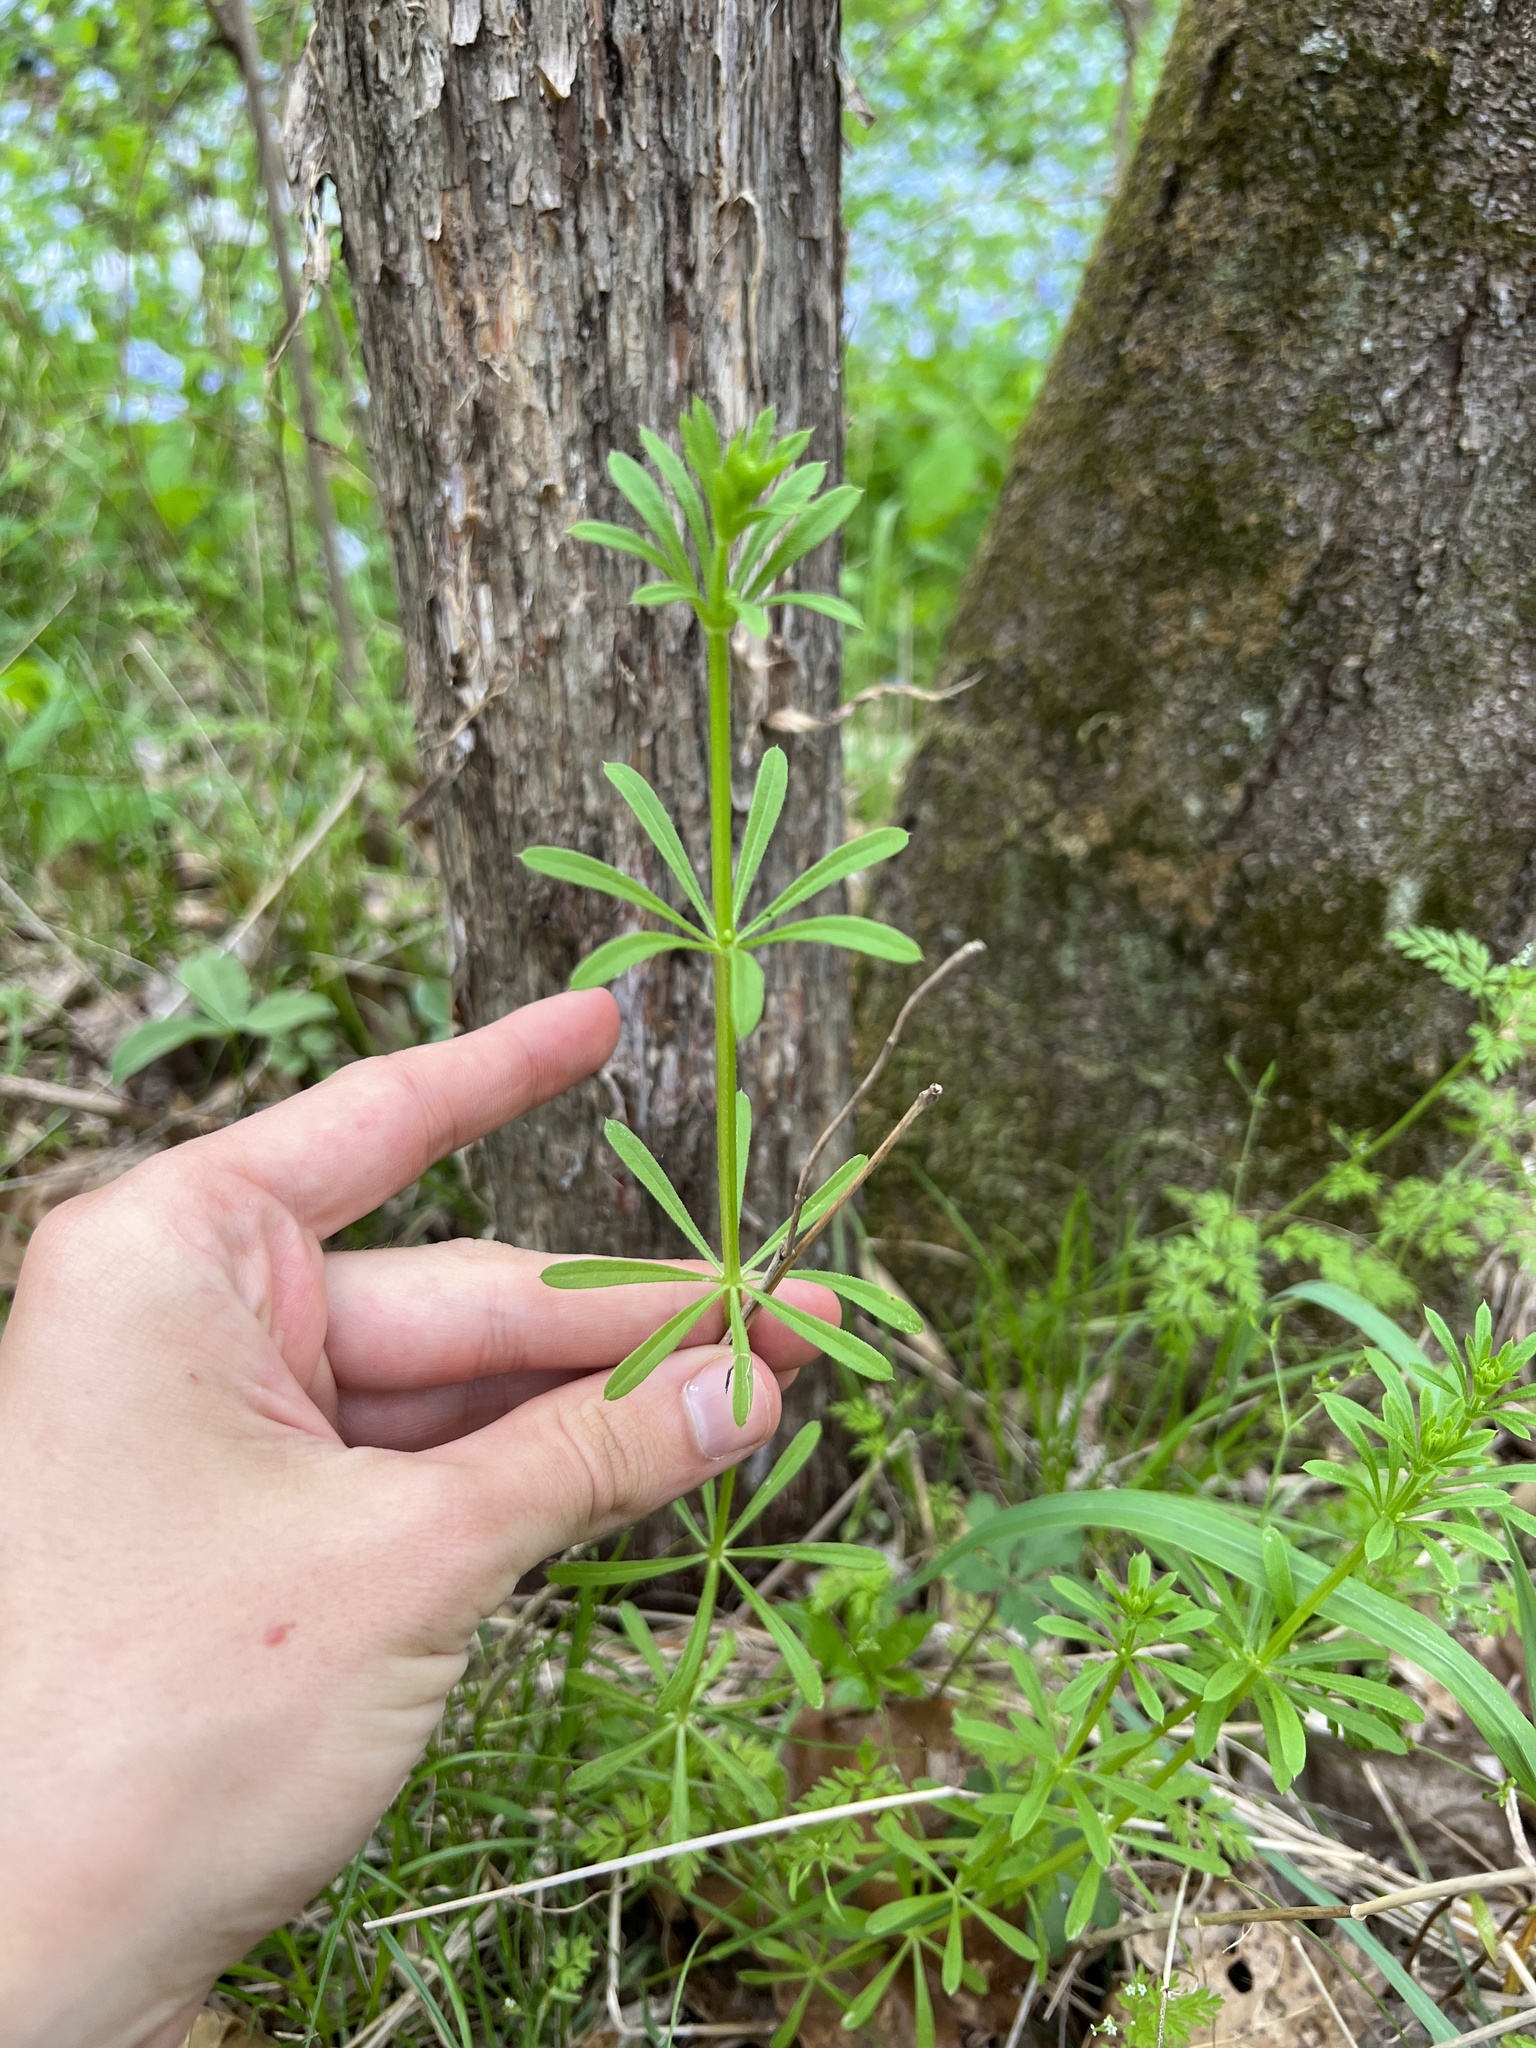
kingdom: Plantae
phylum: Tracheophyta
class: Magnoliopsida
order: Gentianales
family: Rubiaceae
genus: Galium
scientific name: Galium aparine
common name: Cleavers
